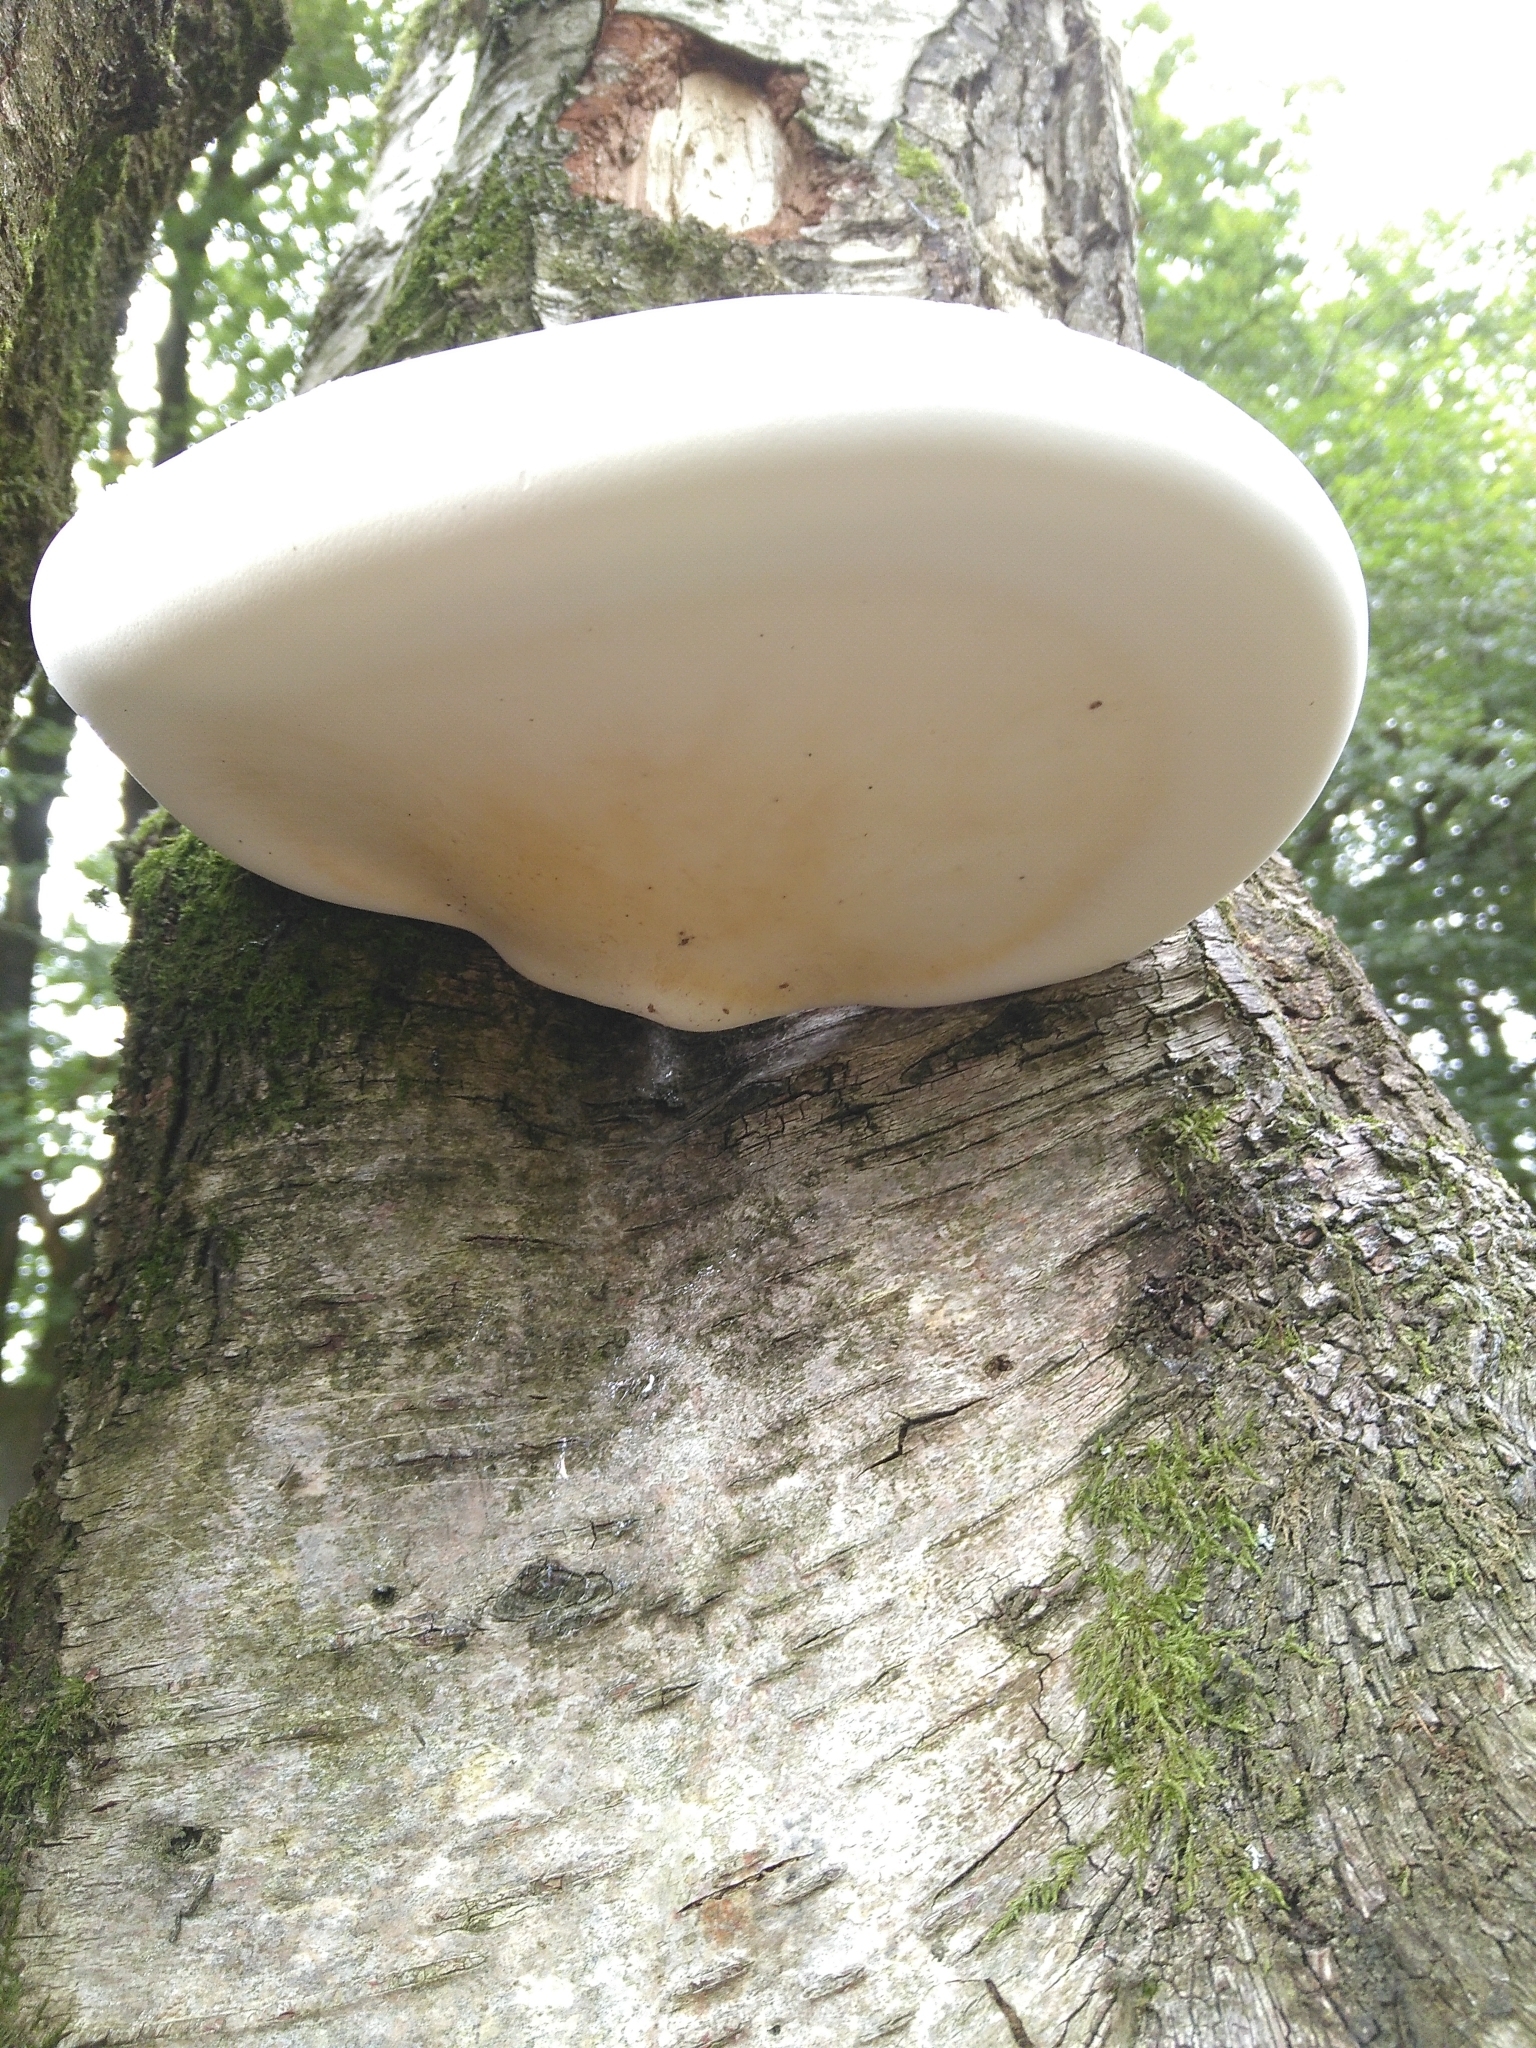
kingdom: Fungi
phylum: Basidiomycota
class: Agaricomycetes
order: Polyporales
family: Fomitopsidaceae
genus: Fomitopsis
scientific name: Fomitopsis betulina
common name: Birch polypore
